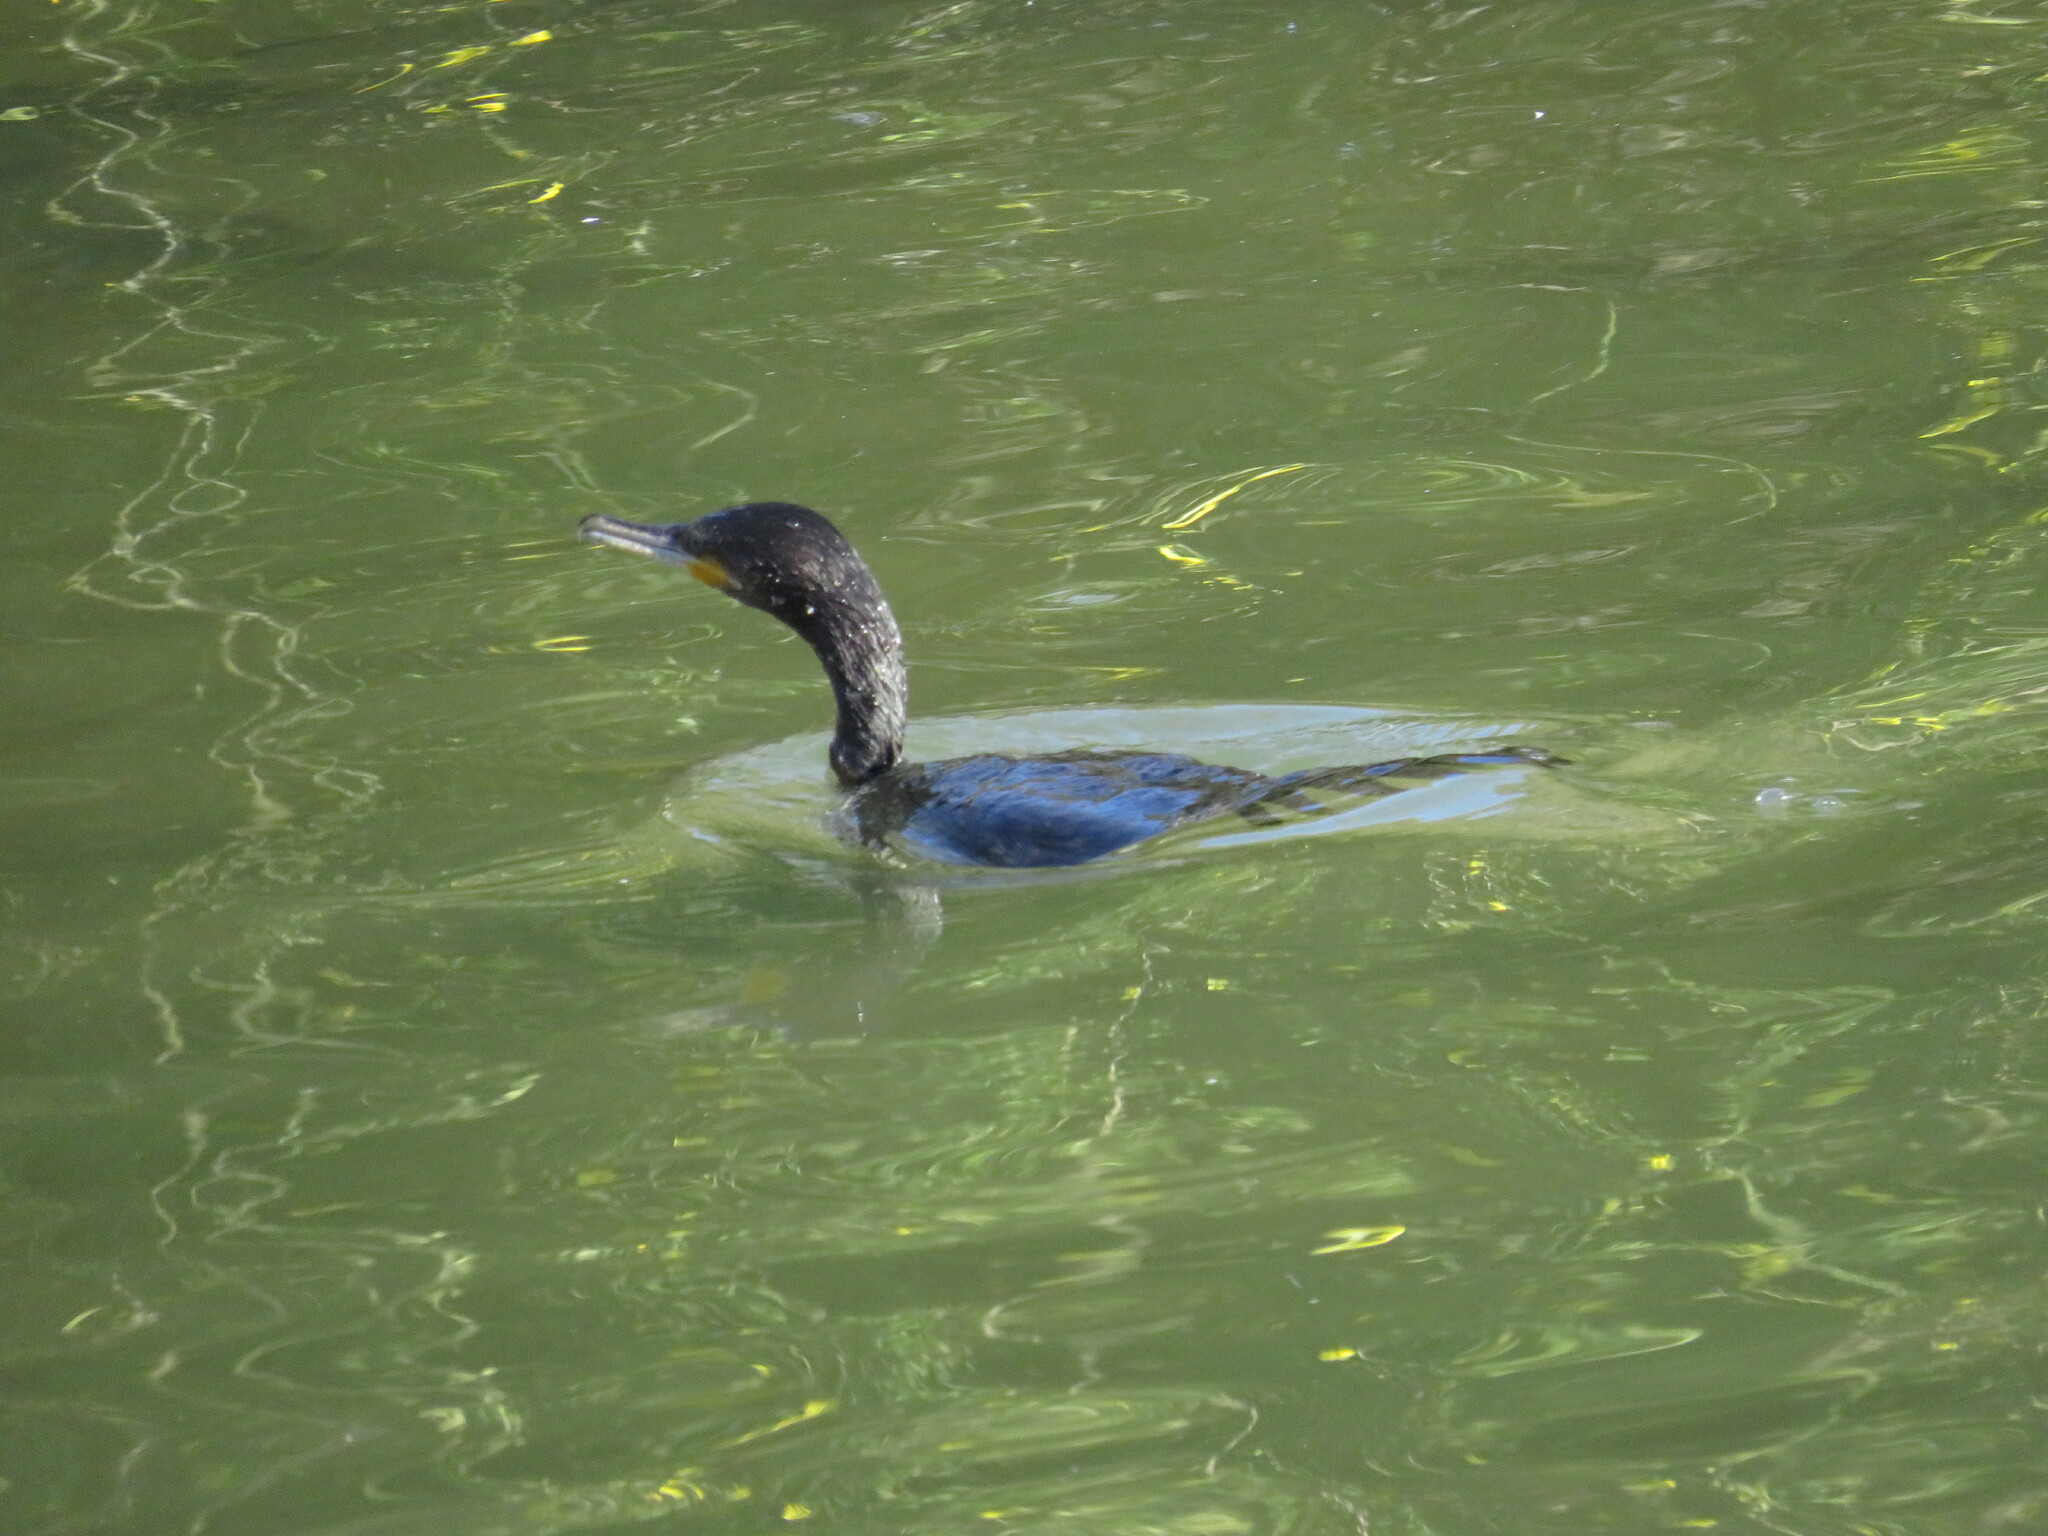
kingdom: Animalia
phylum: Chordata
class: Aves
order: Suliformes
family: Phalacrocoracidae
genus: Phalacrocorax
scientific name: Phalacrocorax brasilianus
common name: Neotropic cormorant
